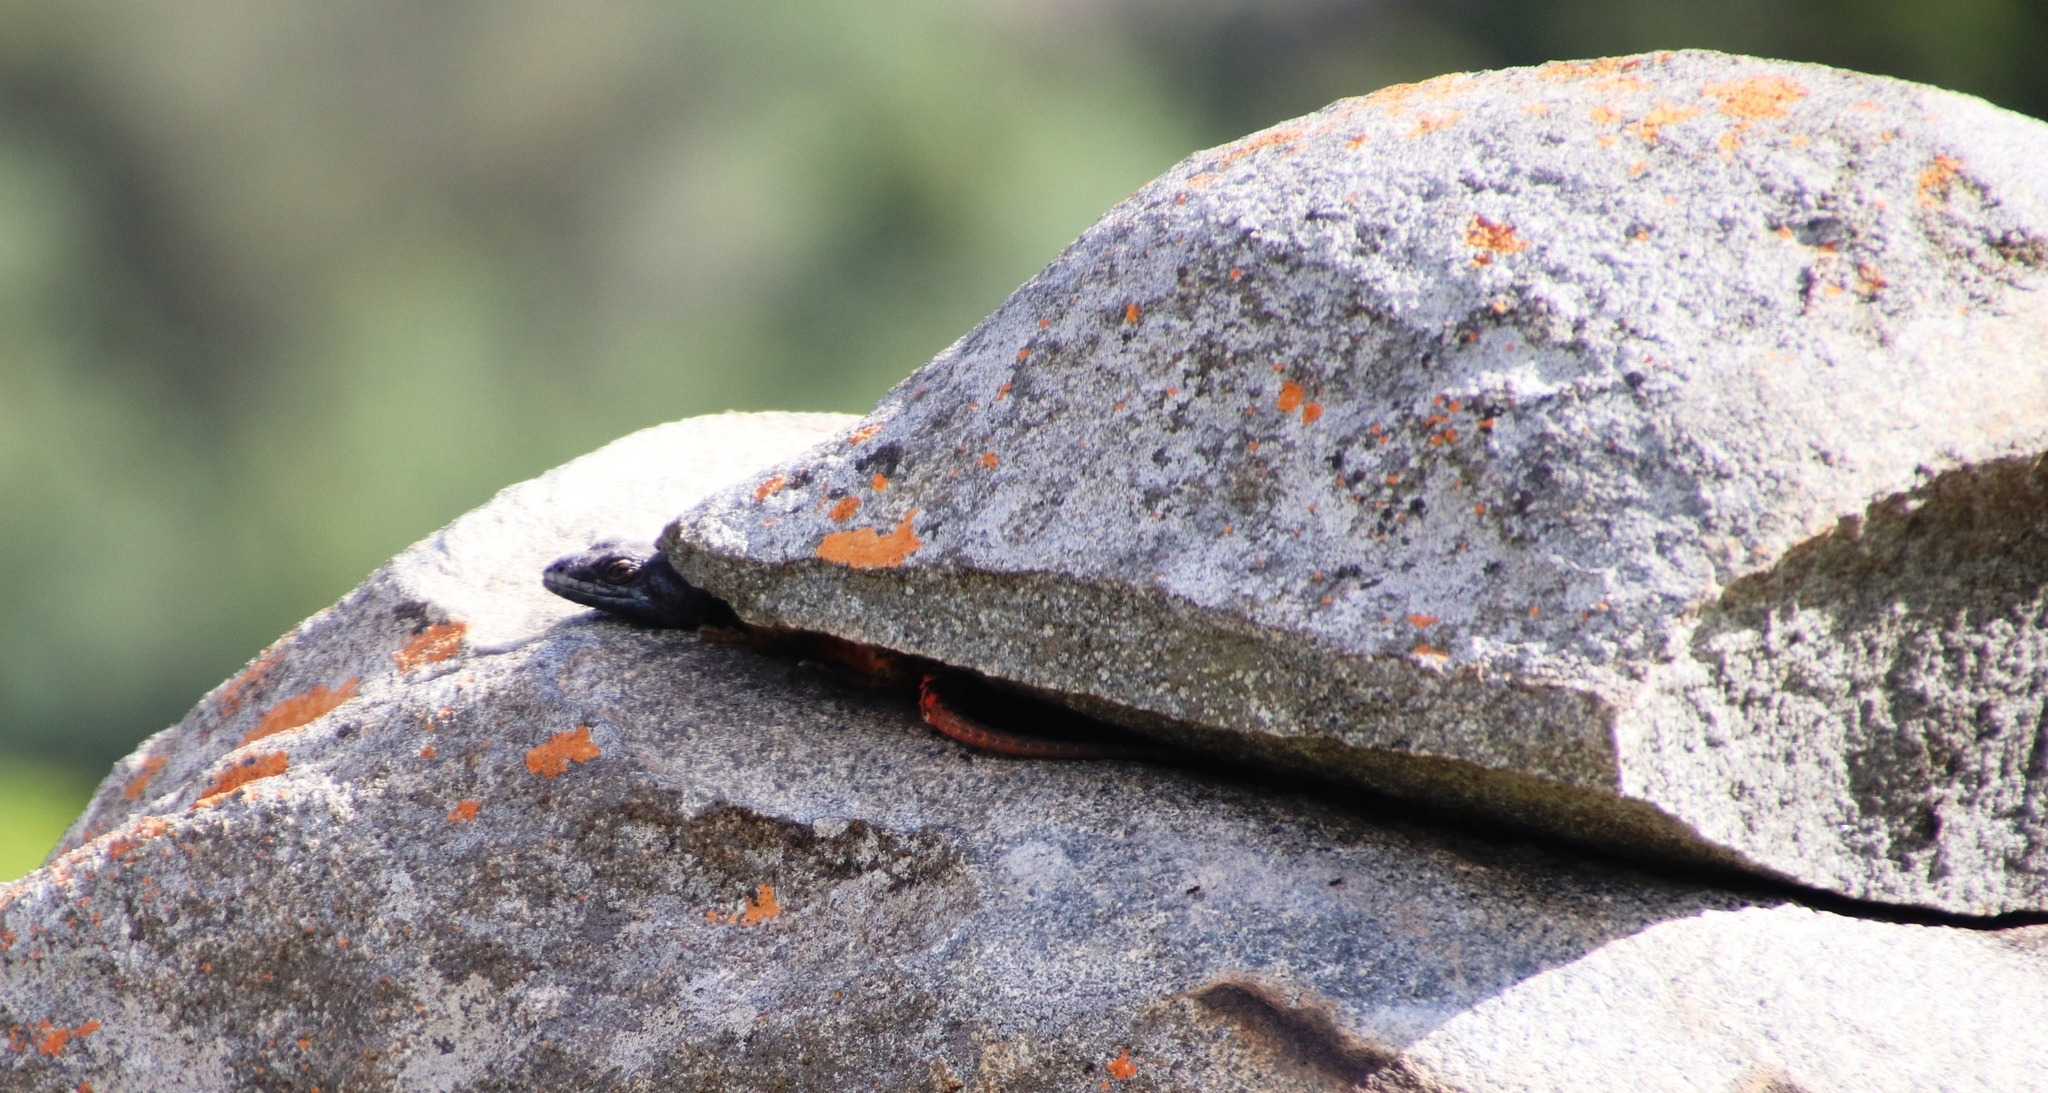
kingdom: Animalia
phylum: Chordata
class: Squamata
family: Cordylidae
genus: Pseudocordylus
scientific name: Pseudocordylus melanotus
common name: Highveld crag lizard
